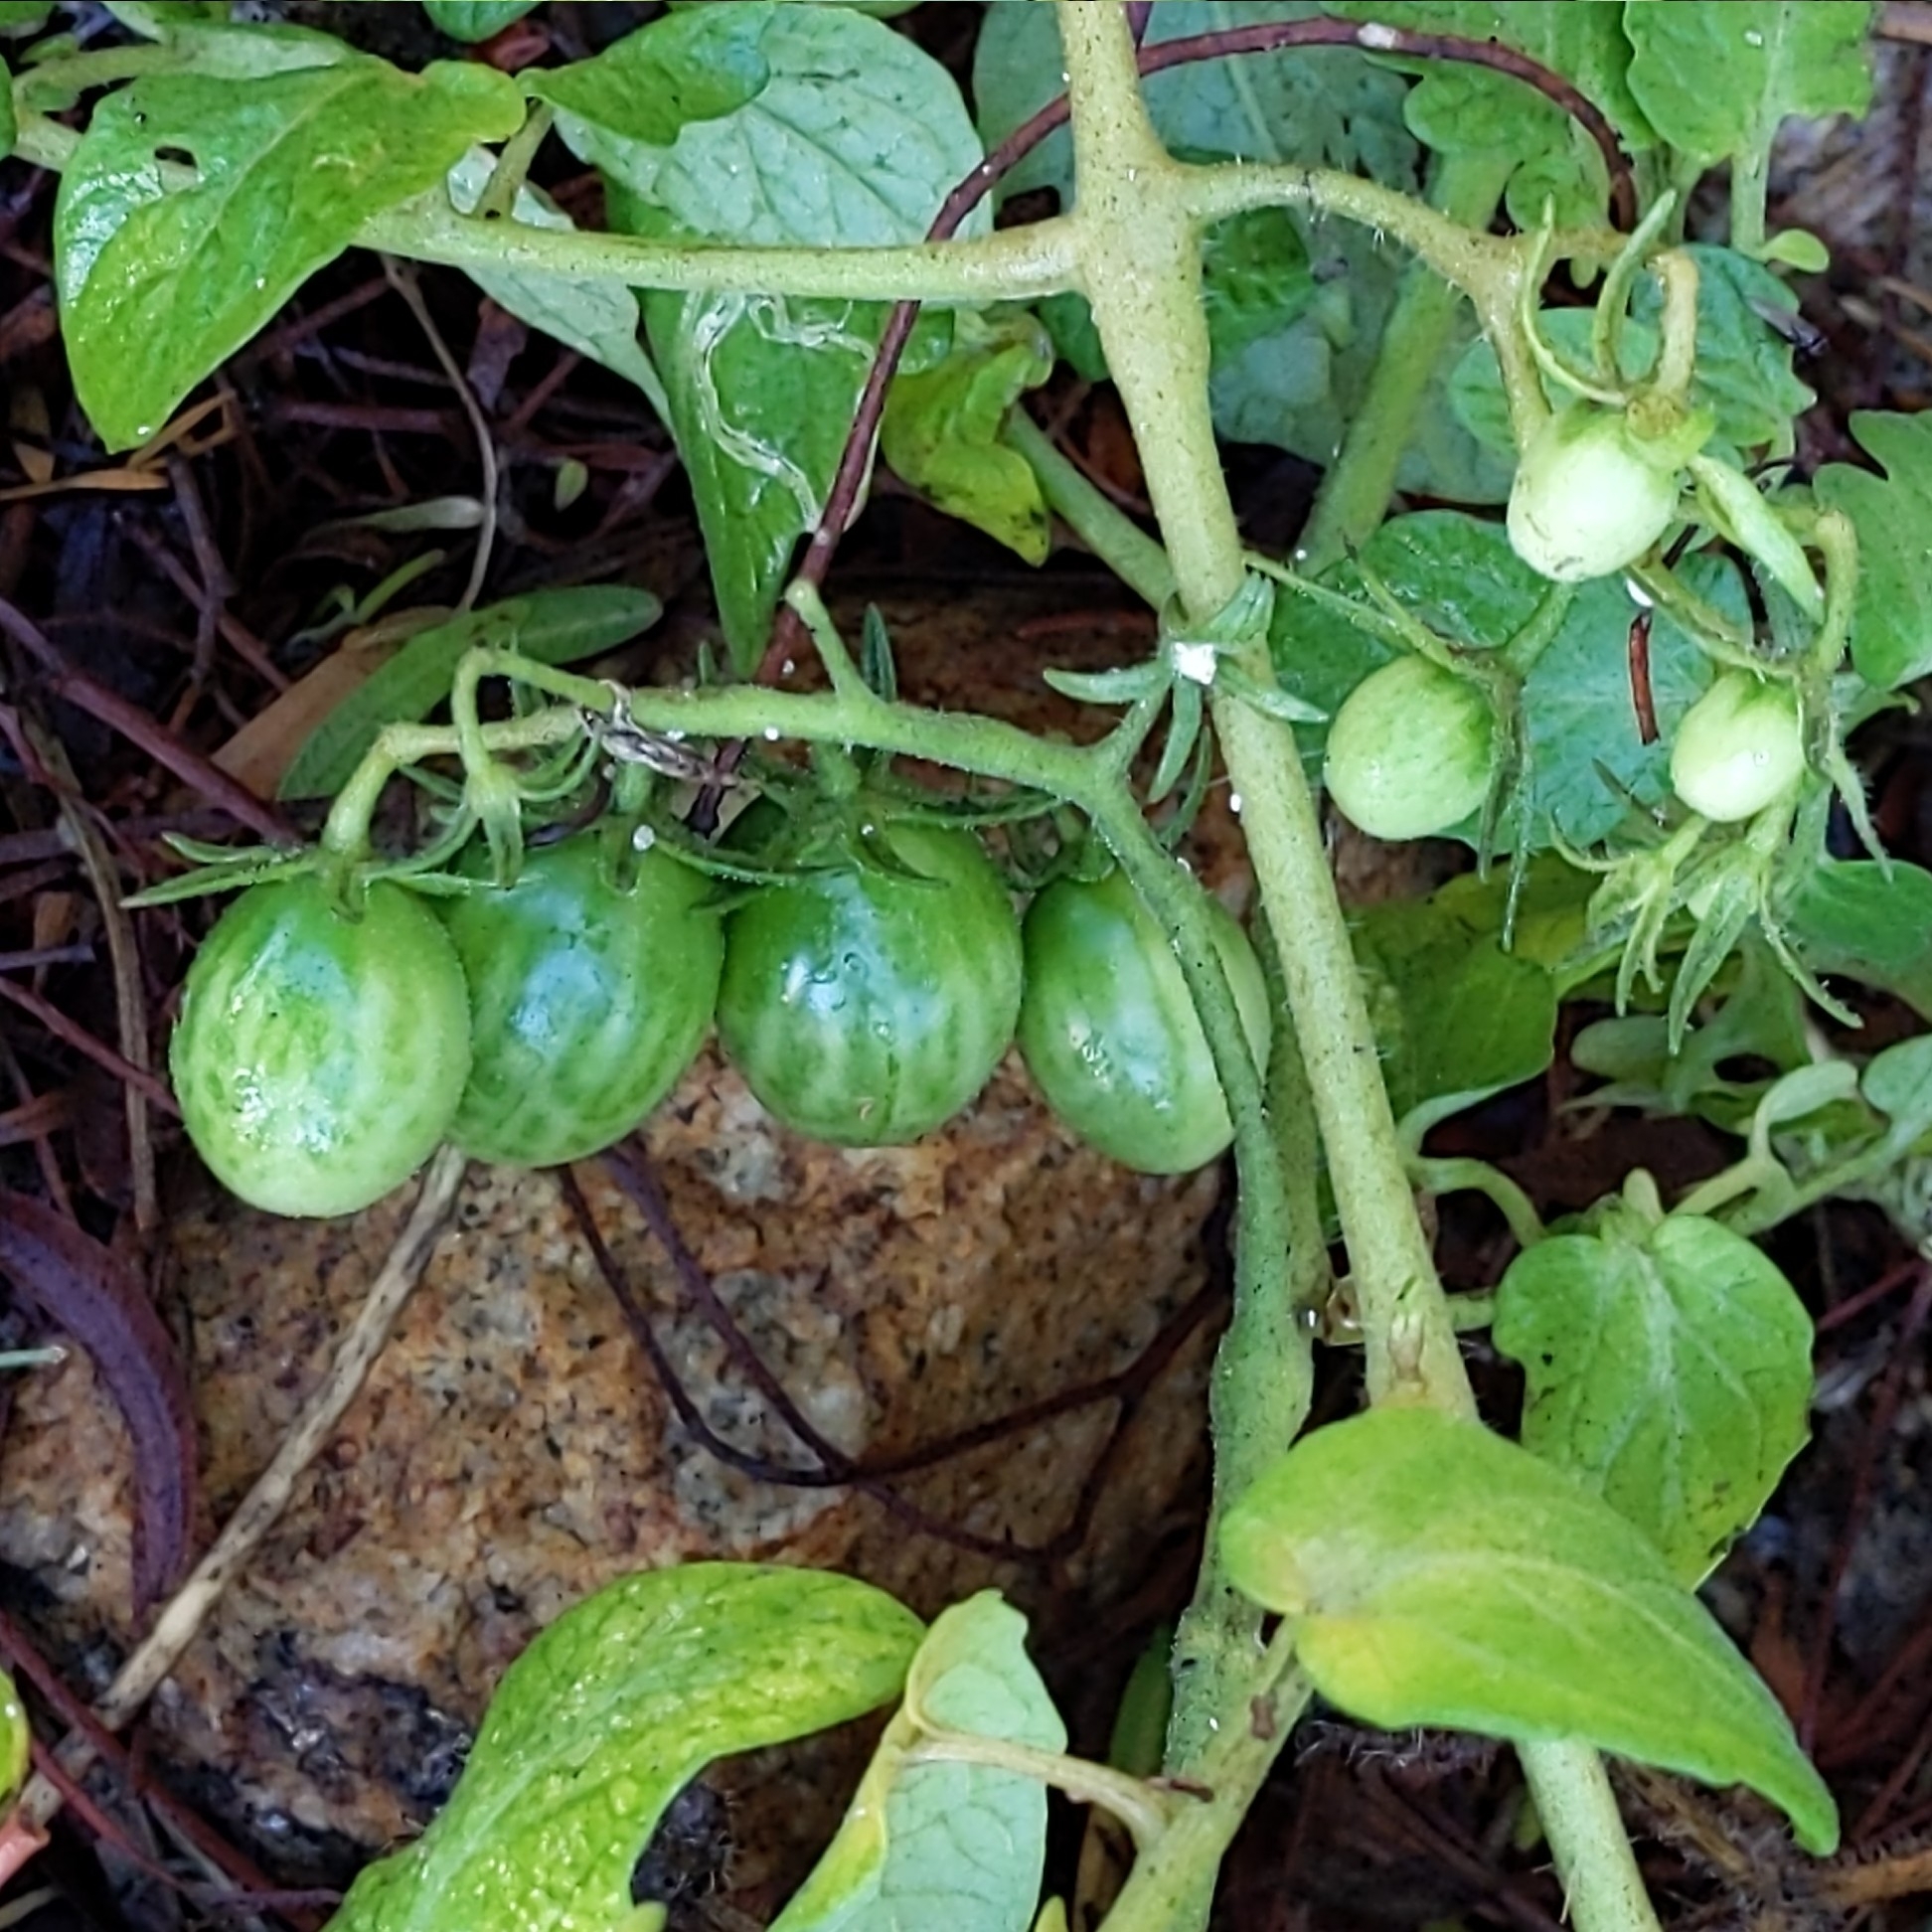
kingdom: Plantae
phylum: Tracheophyta
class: Magnoliopsida
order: Solanales
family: Solanaceae
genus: Solanum
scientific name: Solanum lycopersicum
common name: Garden tomato
